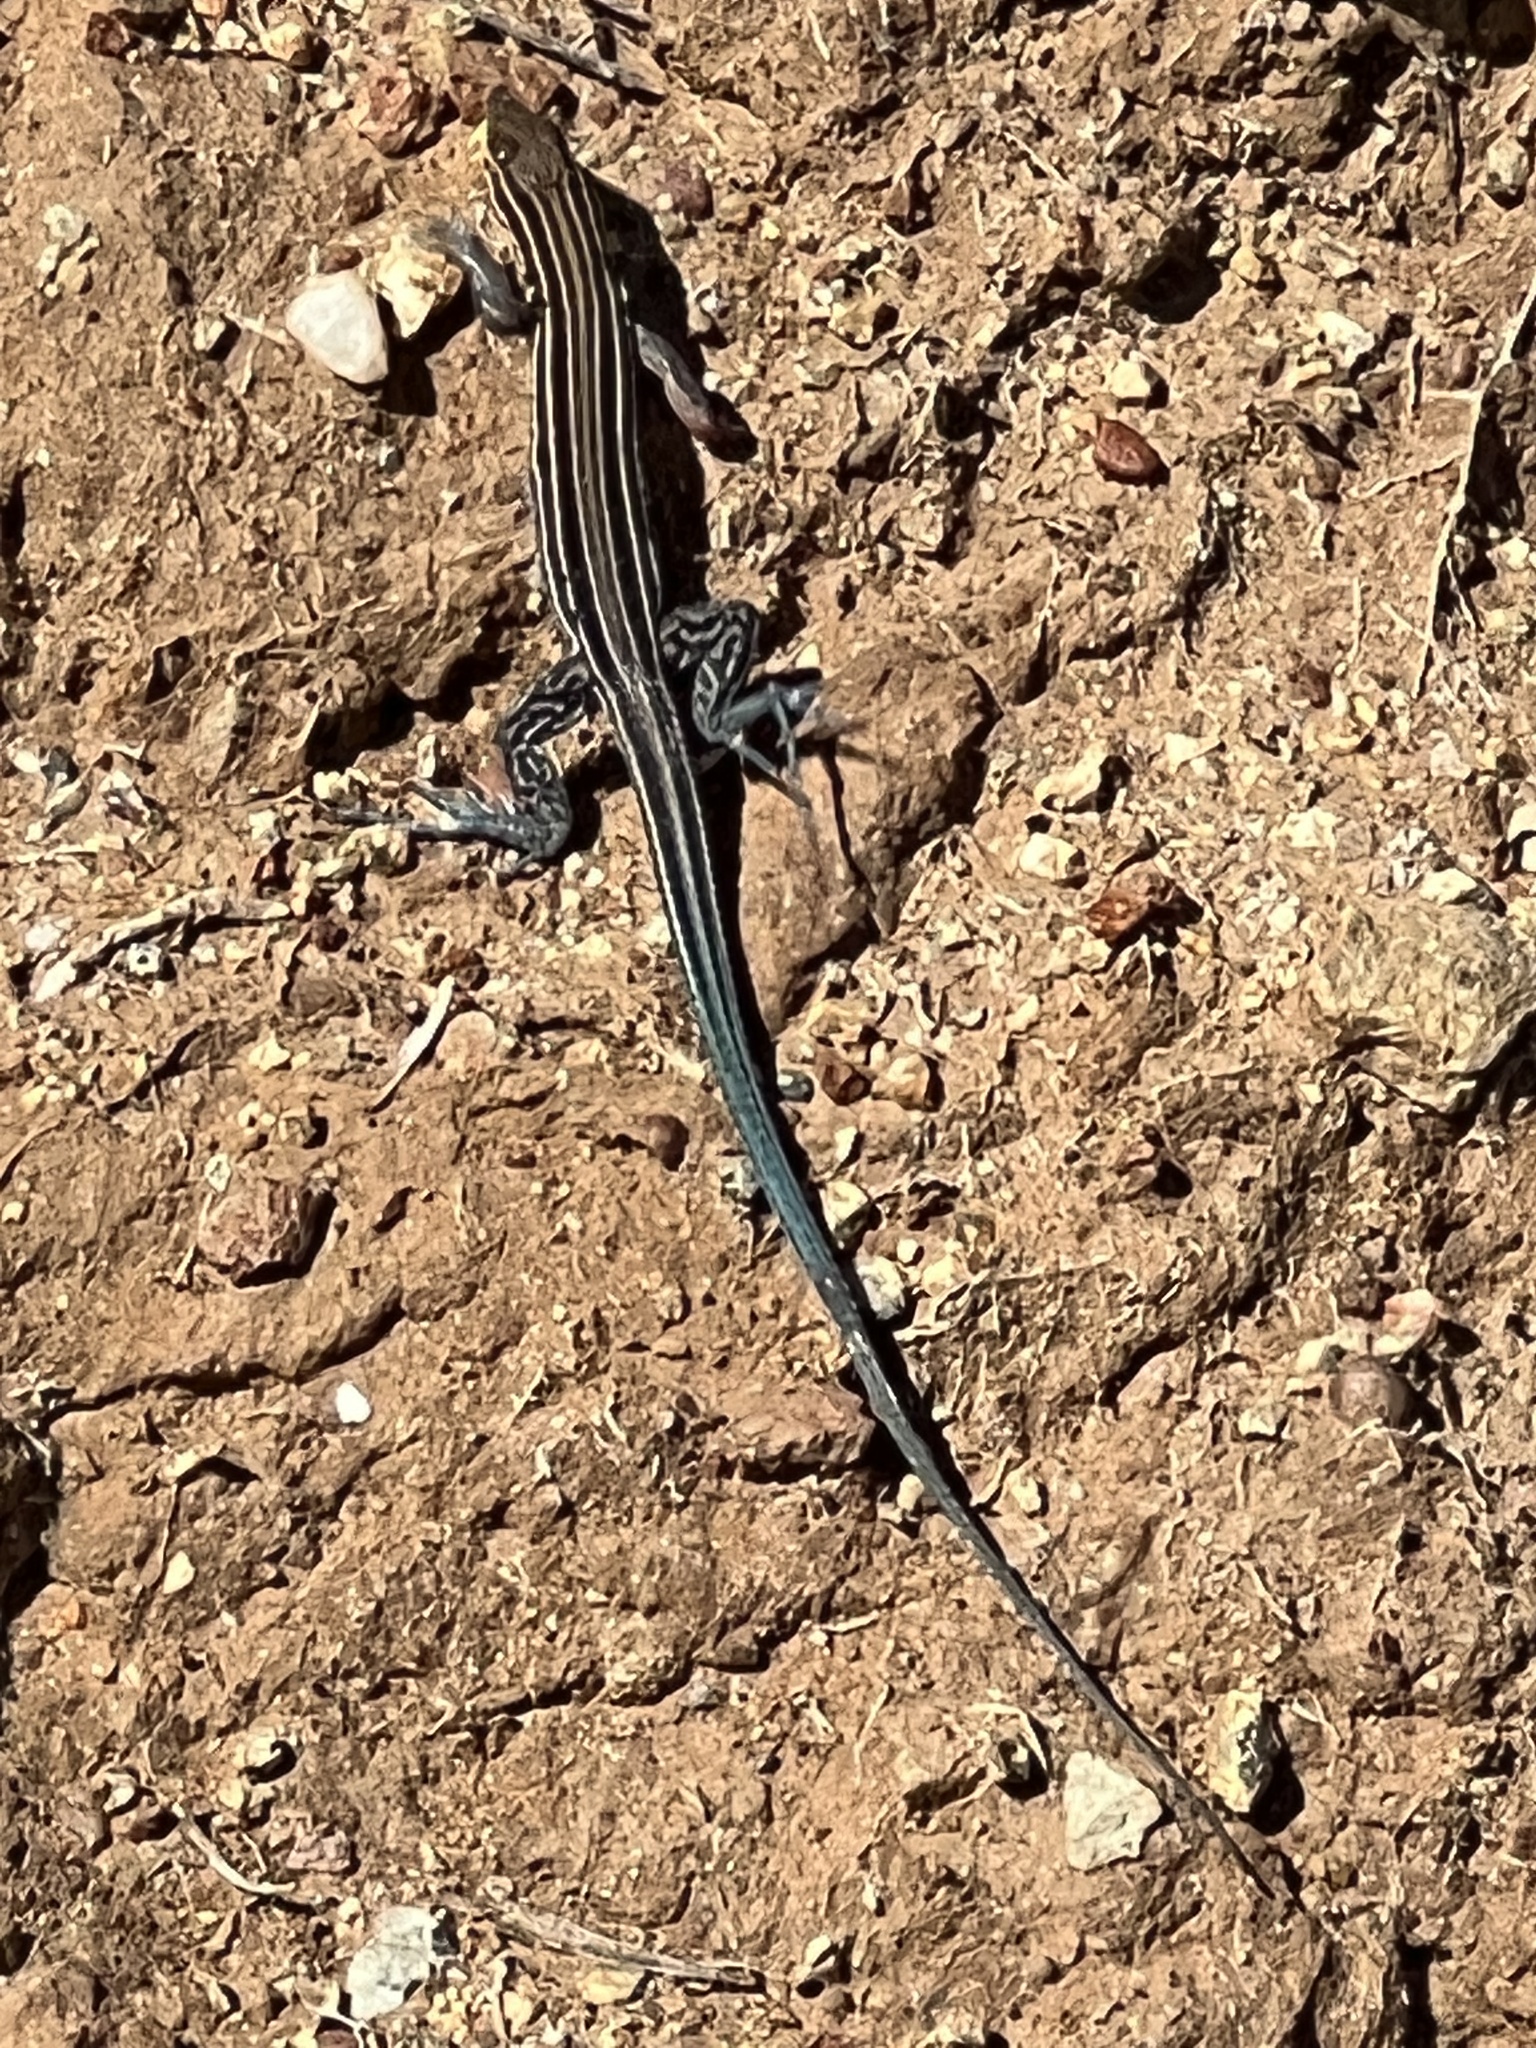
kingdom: Animalia
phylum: Chordata
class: Squamata
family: Teiidae
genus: Aspidoscelis
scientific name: Aspidoscelis hyperythrus
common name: Orange-throated race-runner
